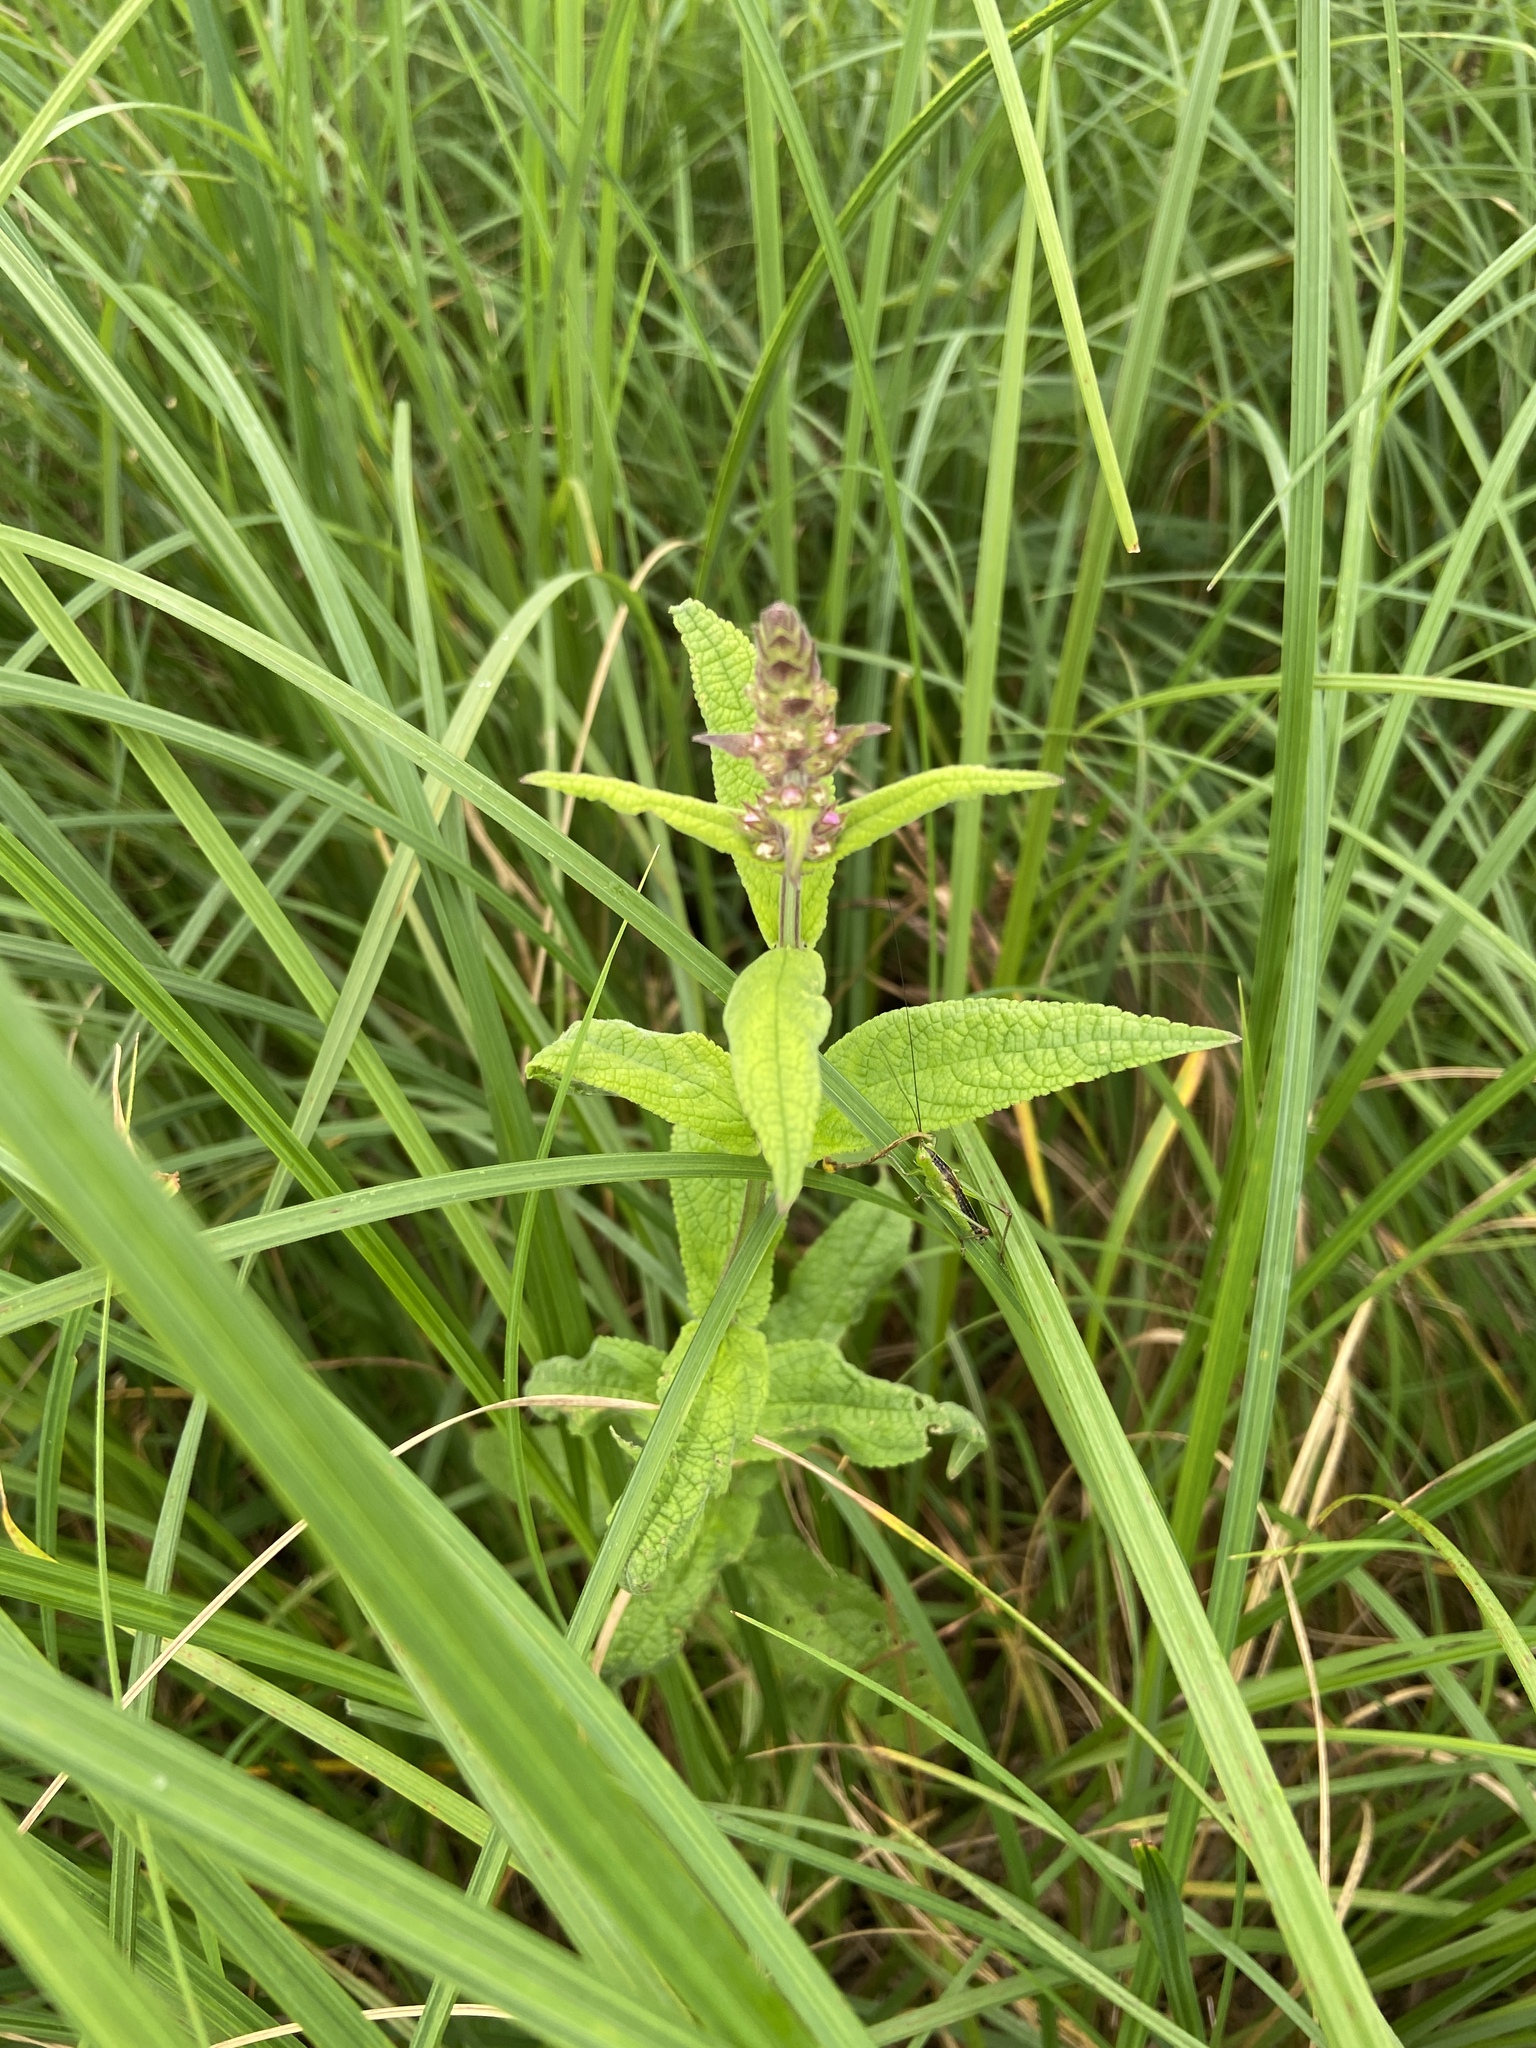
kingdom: Plantae
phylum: Tracheophyta
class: Magnoliopsida
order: Lamiales
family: Lamiaceae
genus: Stachys
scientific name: Stachys palustris
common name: Marsh woundwort
